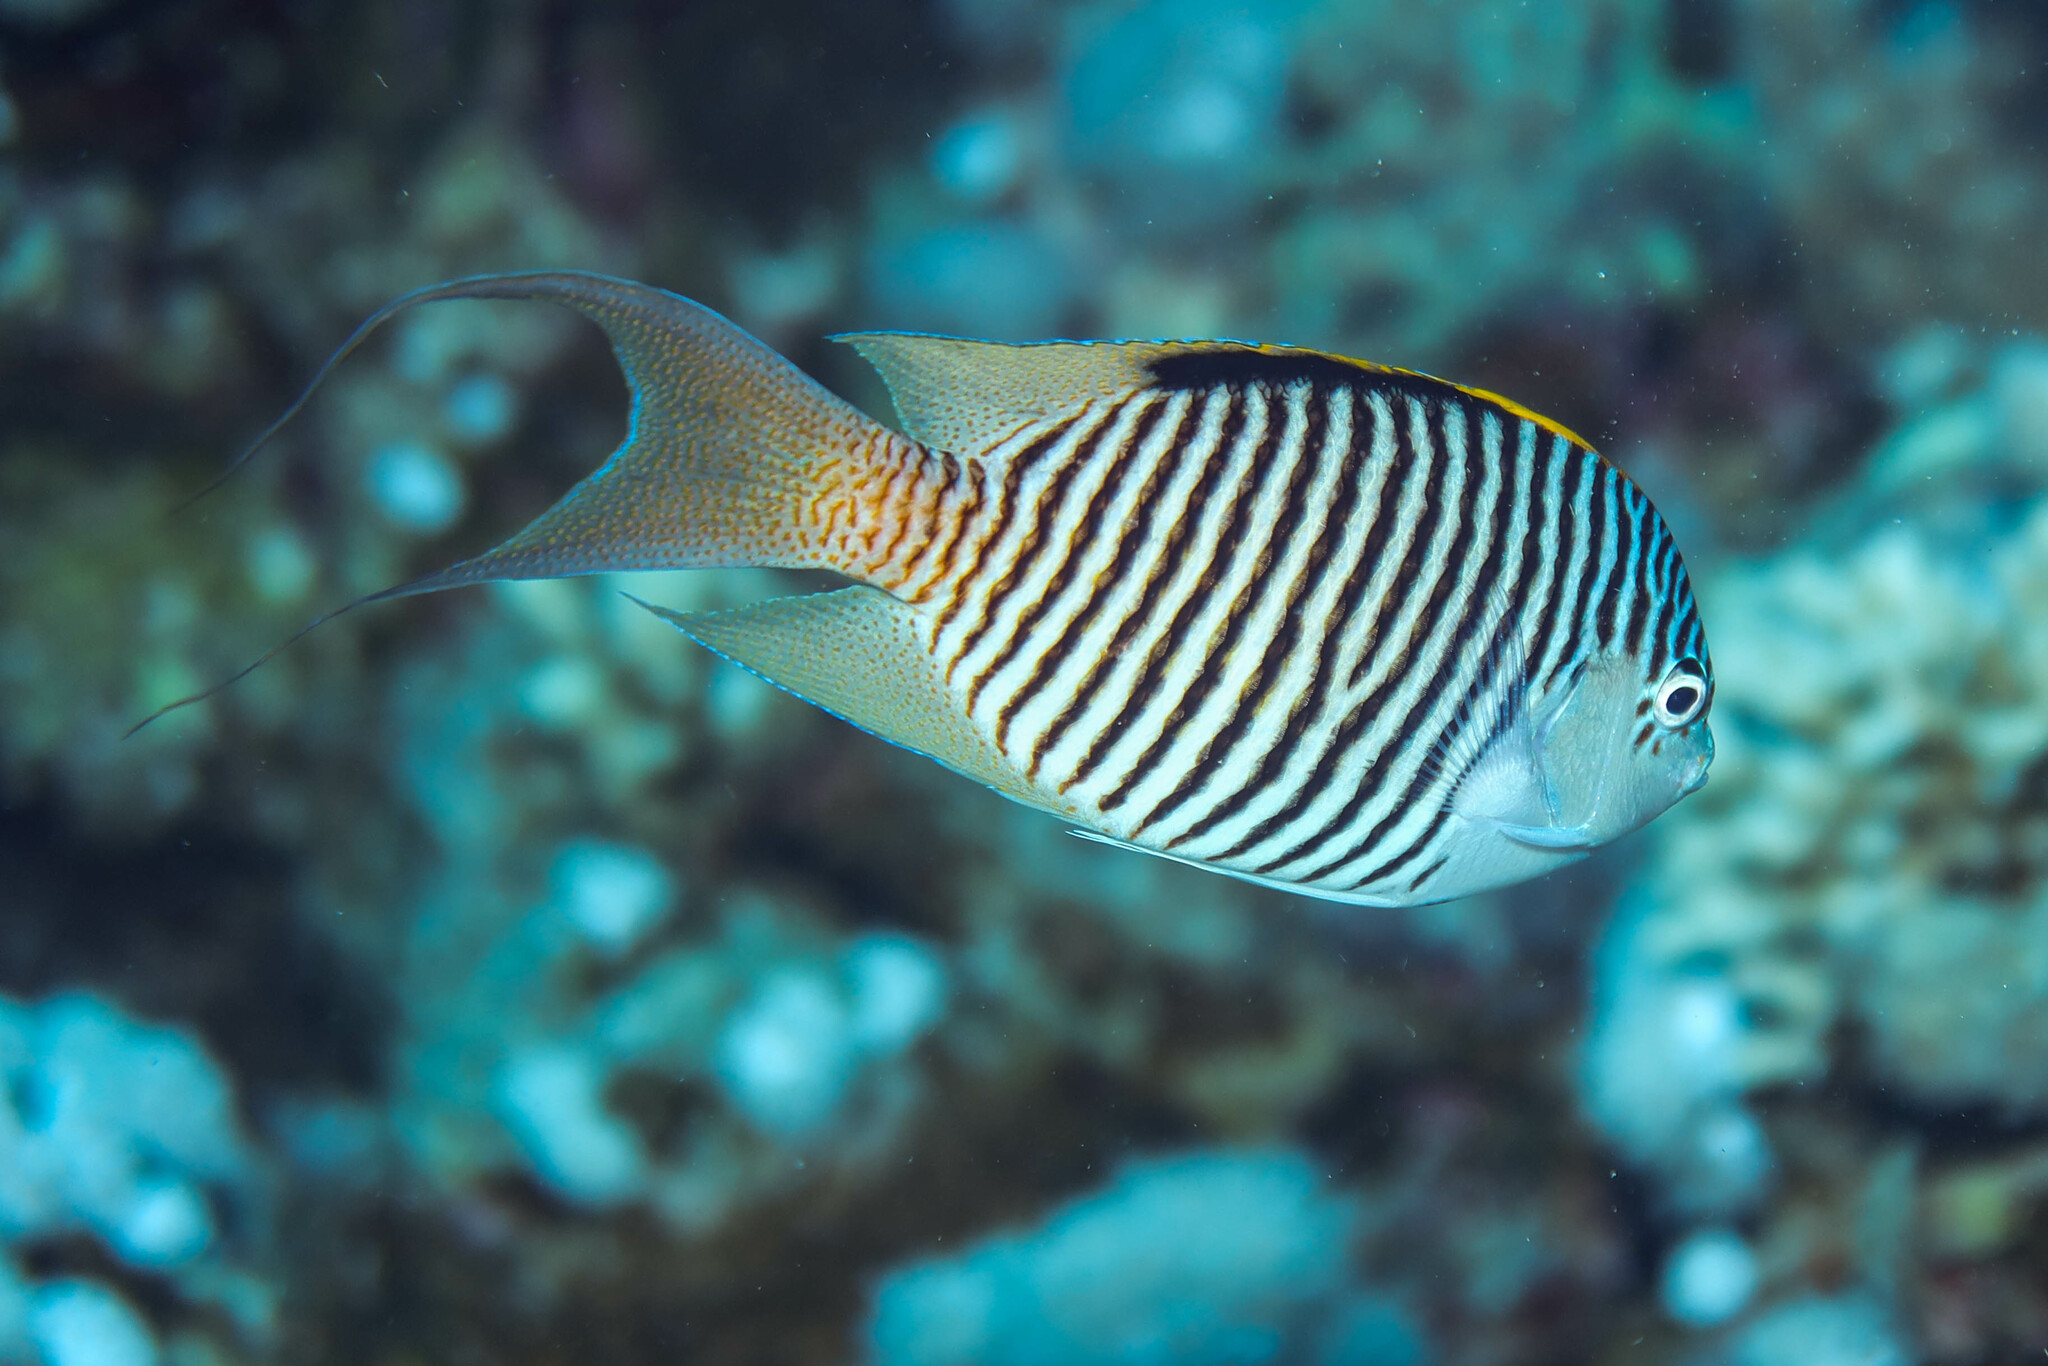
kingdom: Animalia
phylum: Chordata
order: Perciformes
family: Pomacanthidae
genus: Genicanthus
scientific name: Genicanthus caudovittatus
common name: Lyretail angelfish
